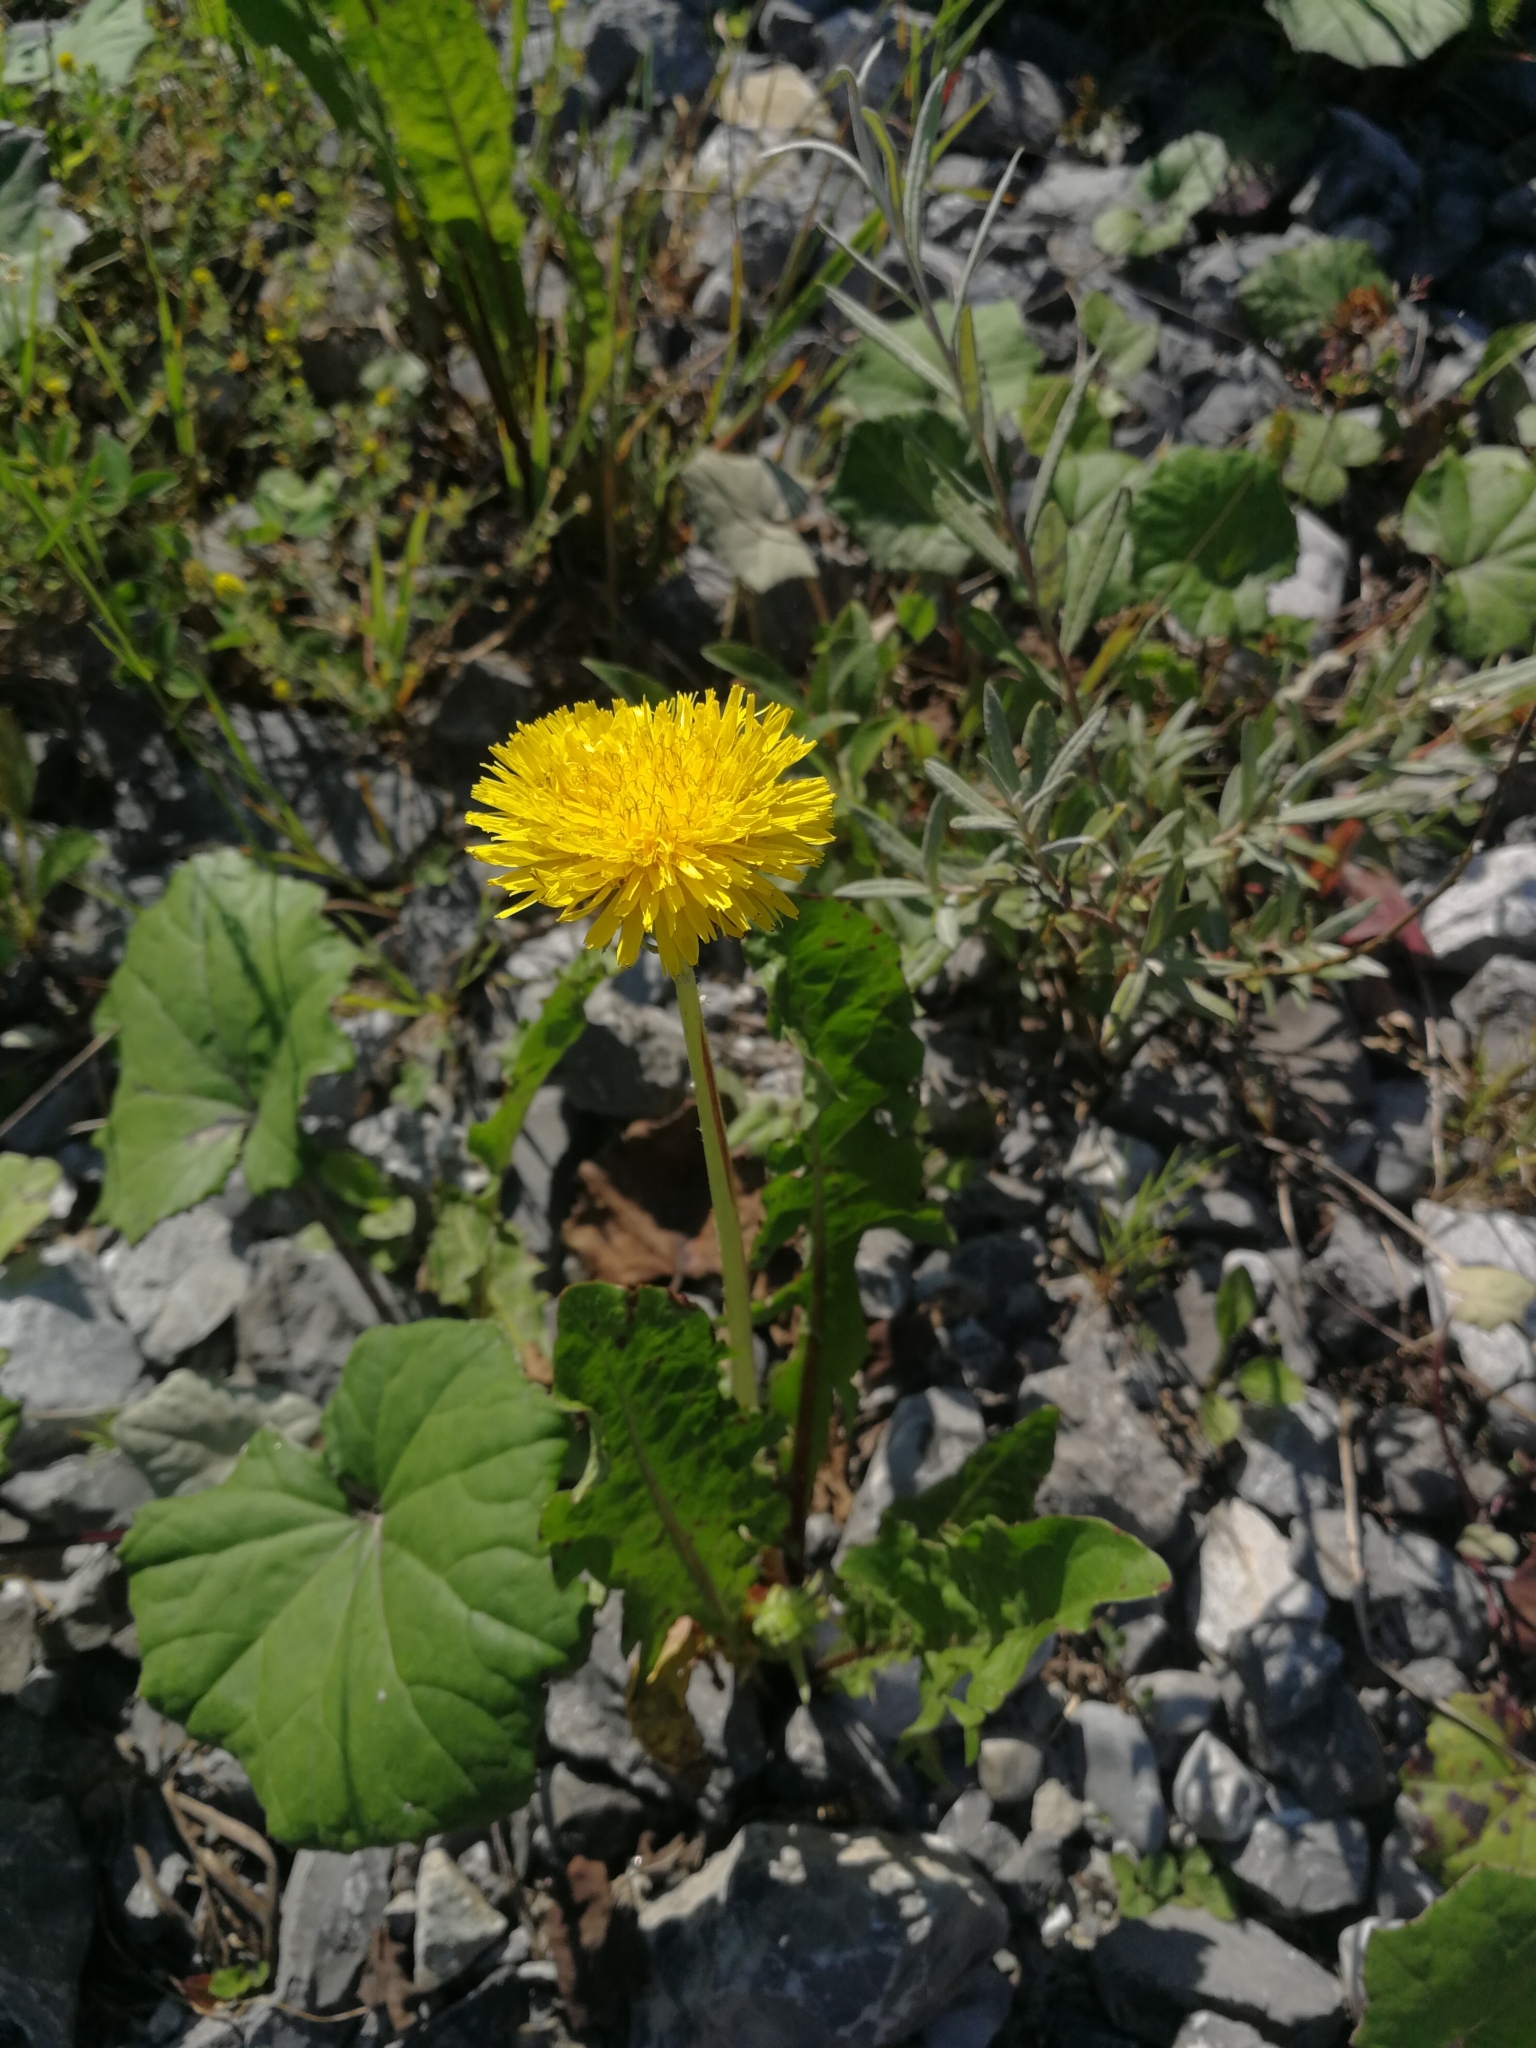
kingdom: Plantae
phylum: Tracheophyta
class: Magnoliopsida
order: Asterales
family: Asteraceae
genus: Taraxacum
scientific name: Taraxacum
